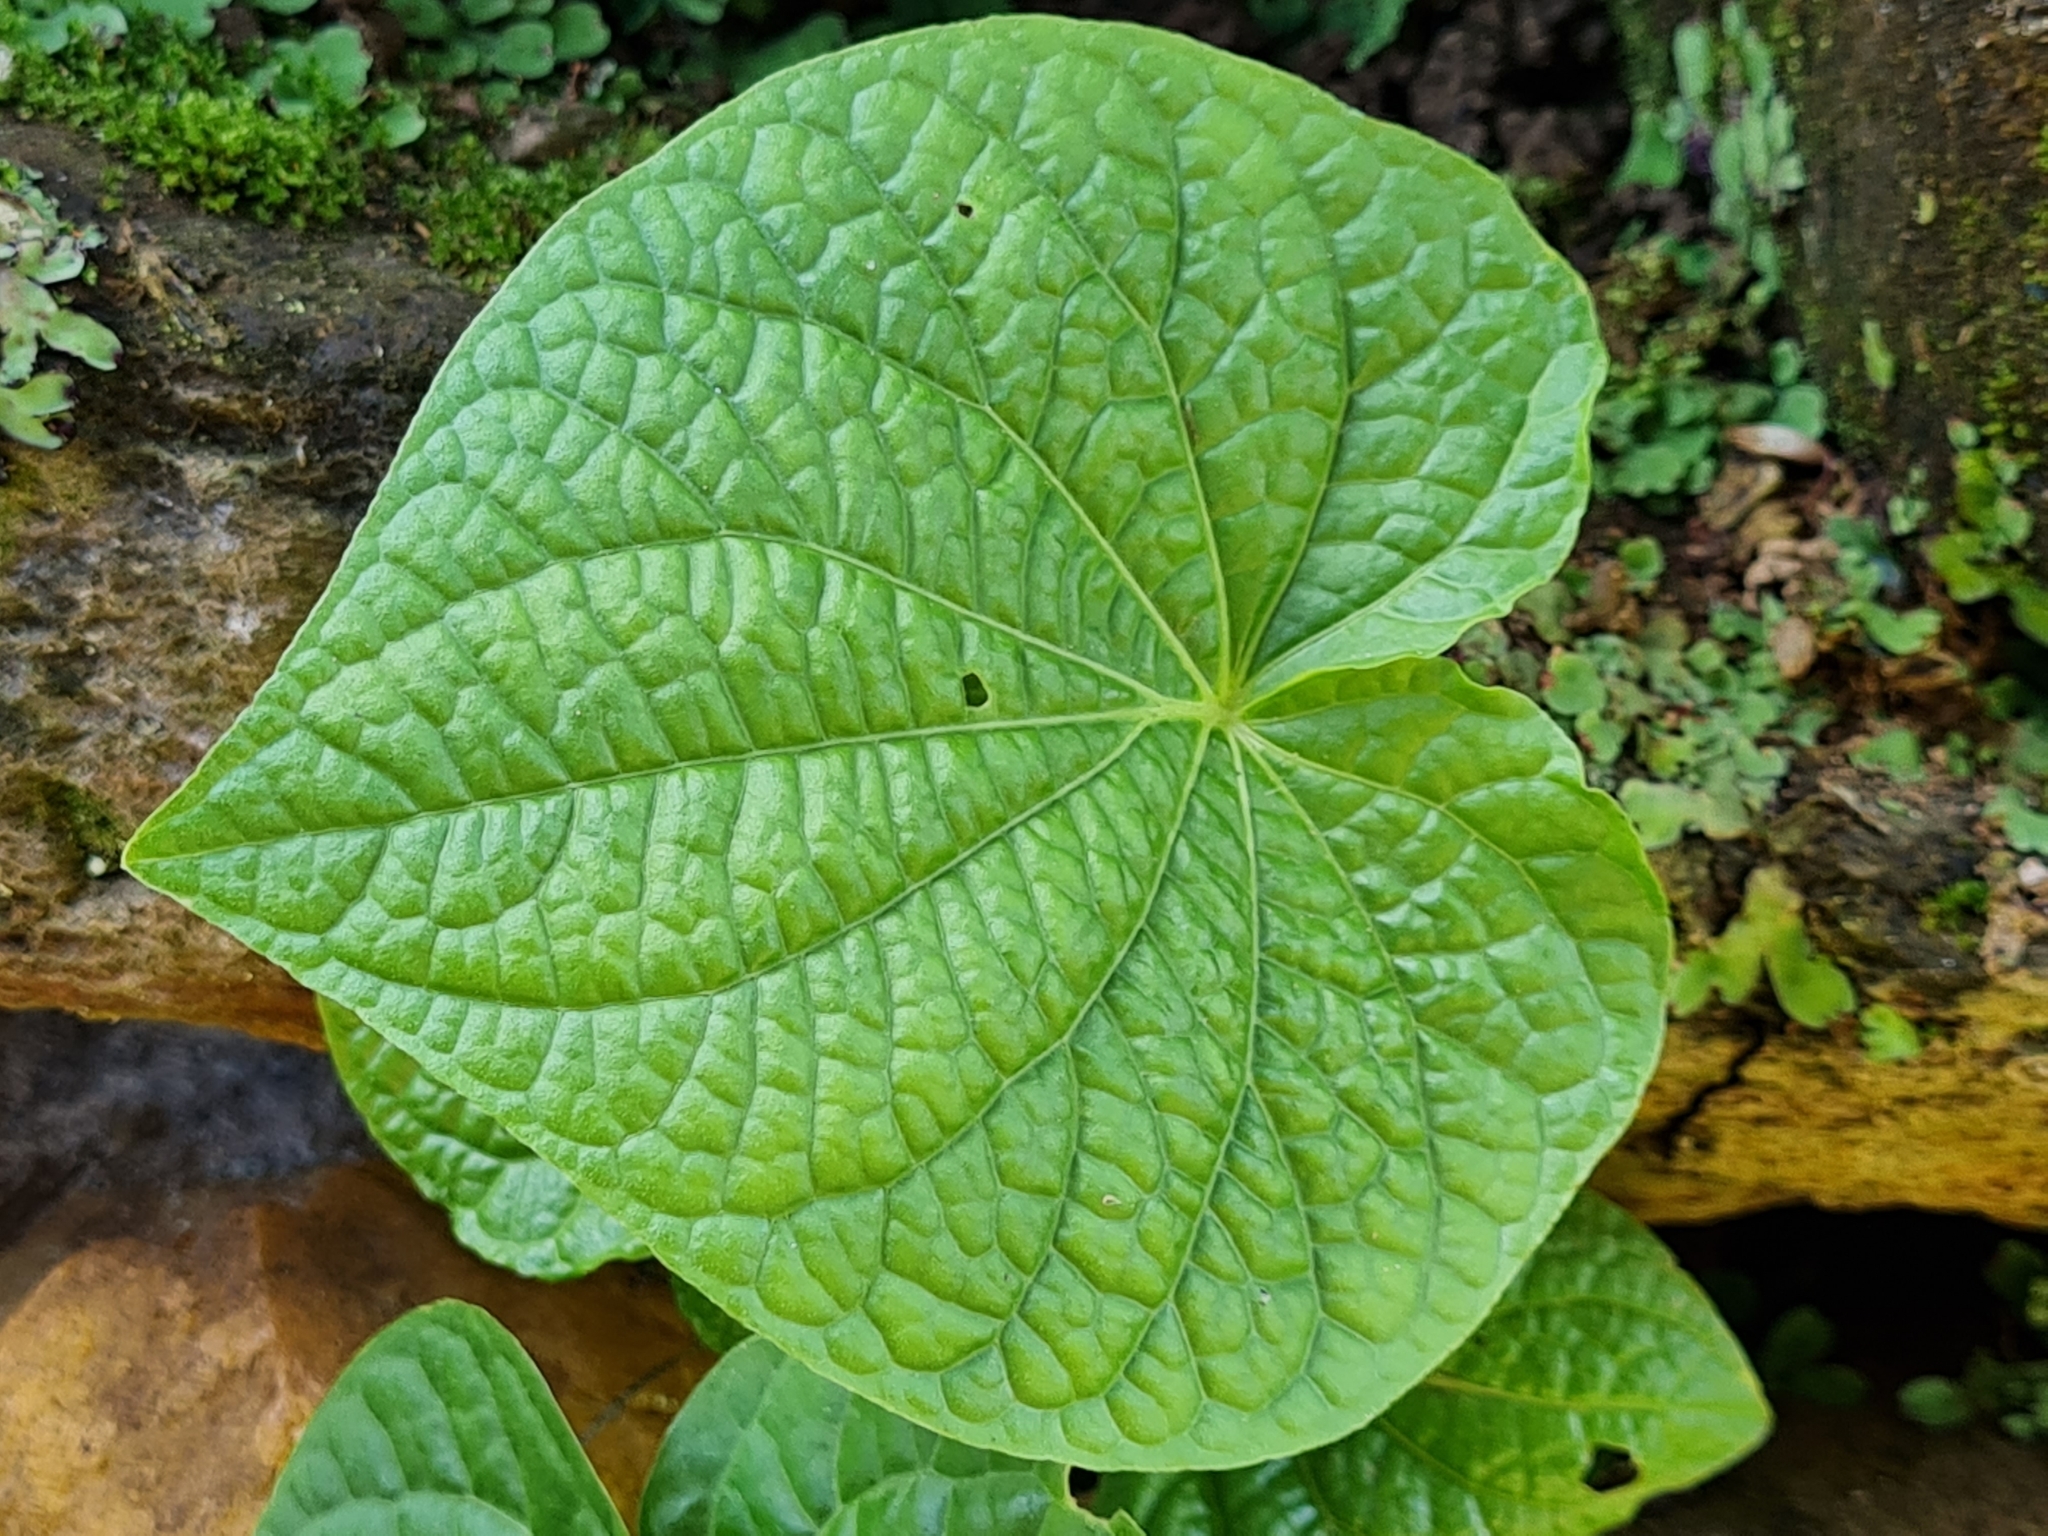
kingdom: Plantae
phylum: Tracheophyta
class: Magnoliopsida
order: Piperales
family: Piperaceae
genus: Piper
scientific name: Piper umbellatum
